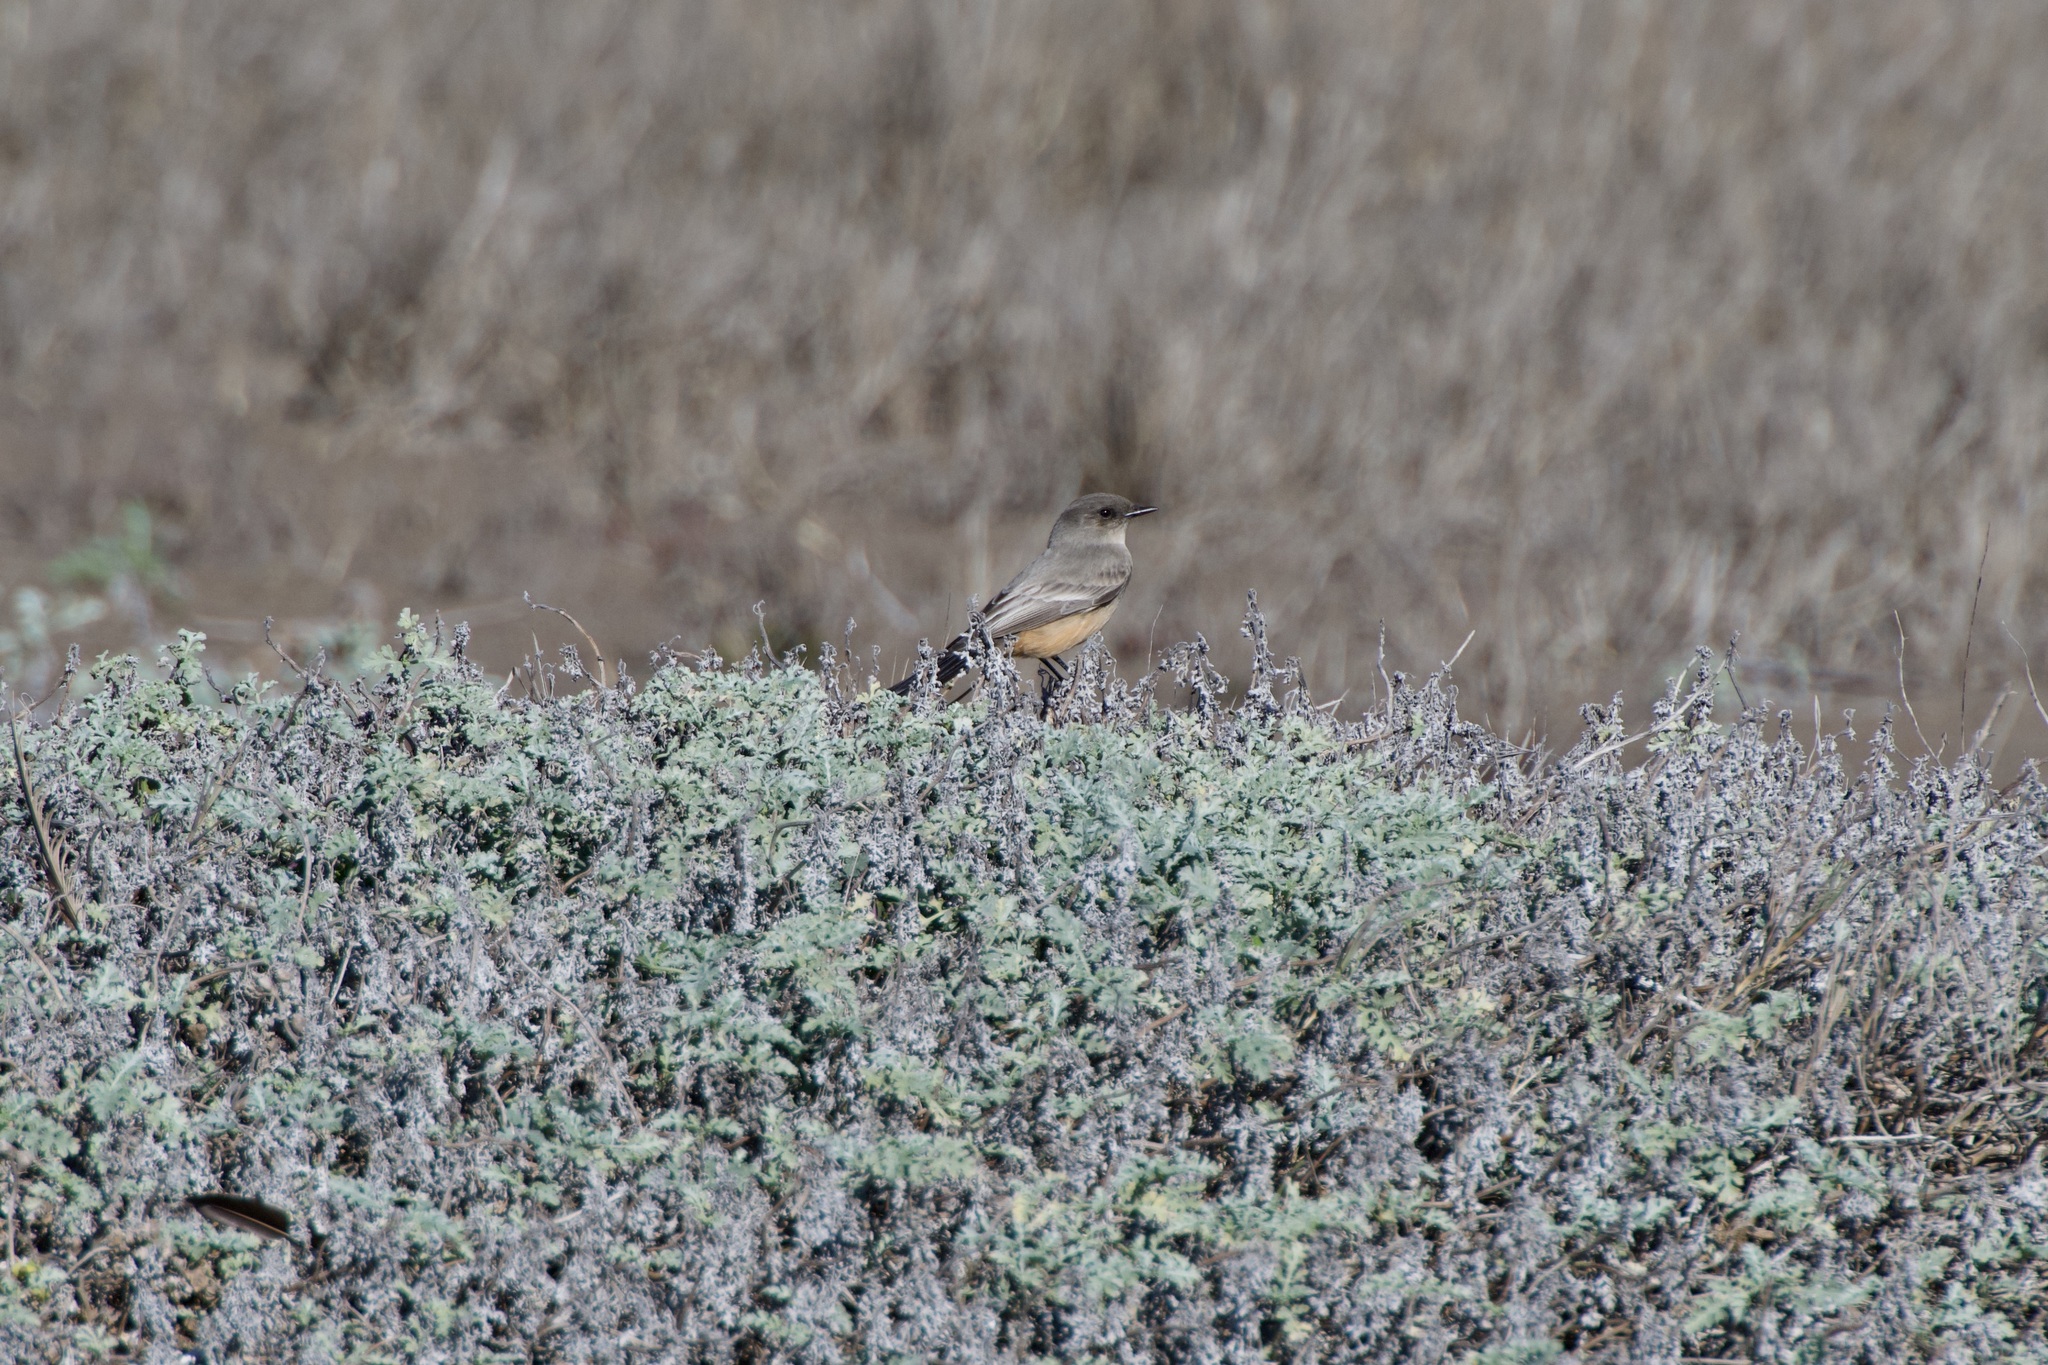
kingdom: Animalia
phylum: Chordata
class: Aves
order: Passeriformes
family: Tyrannidae
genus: Sayornis
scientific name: Sayornis saya
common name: Say's phoebe
